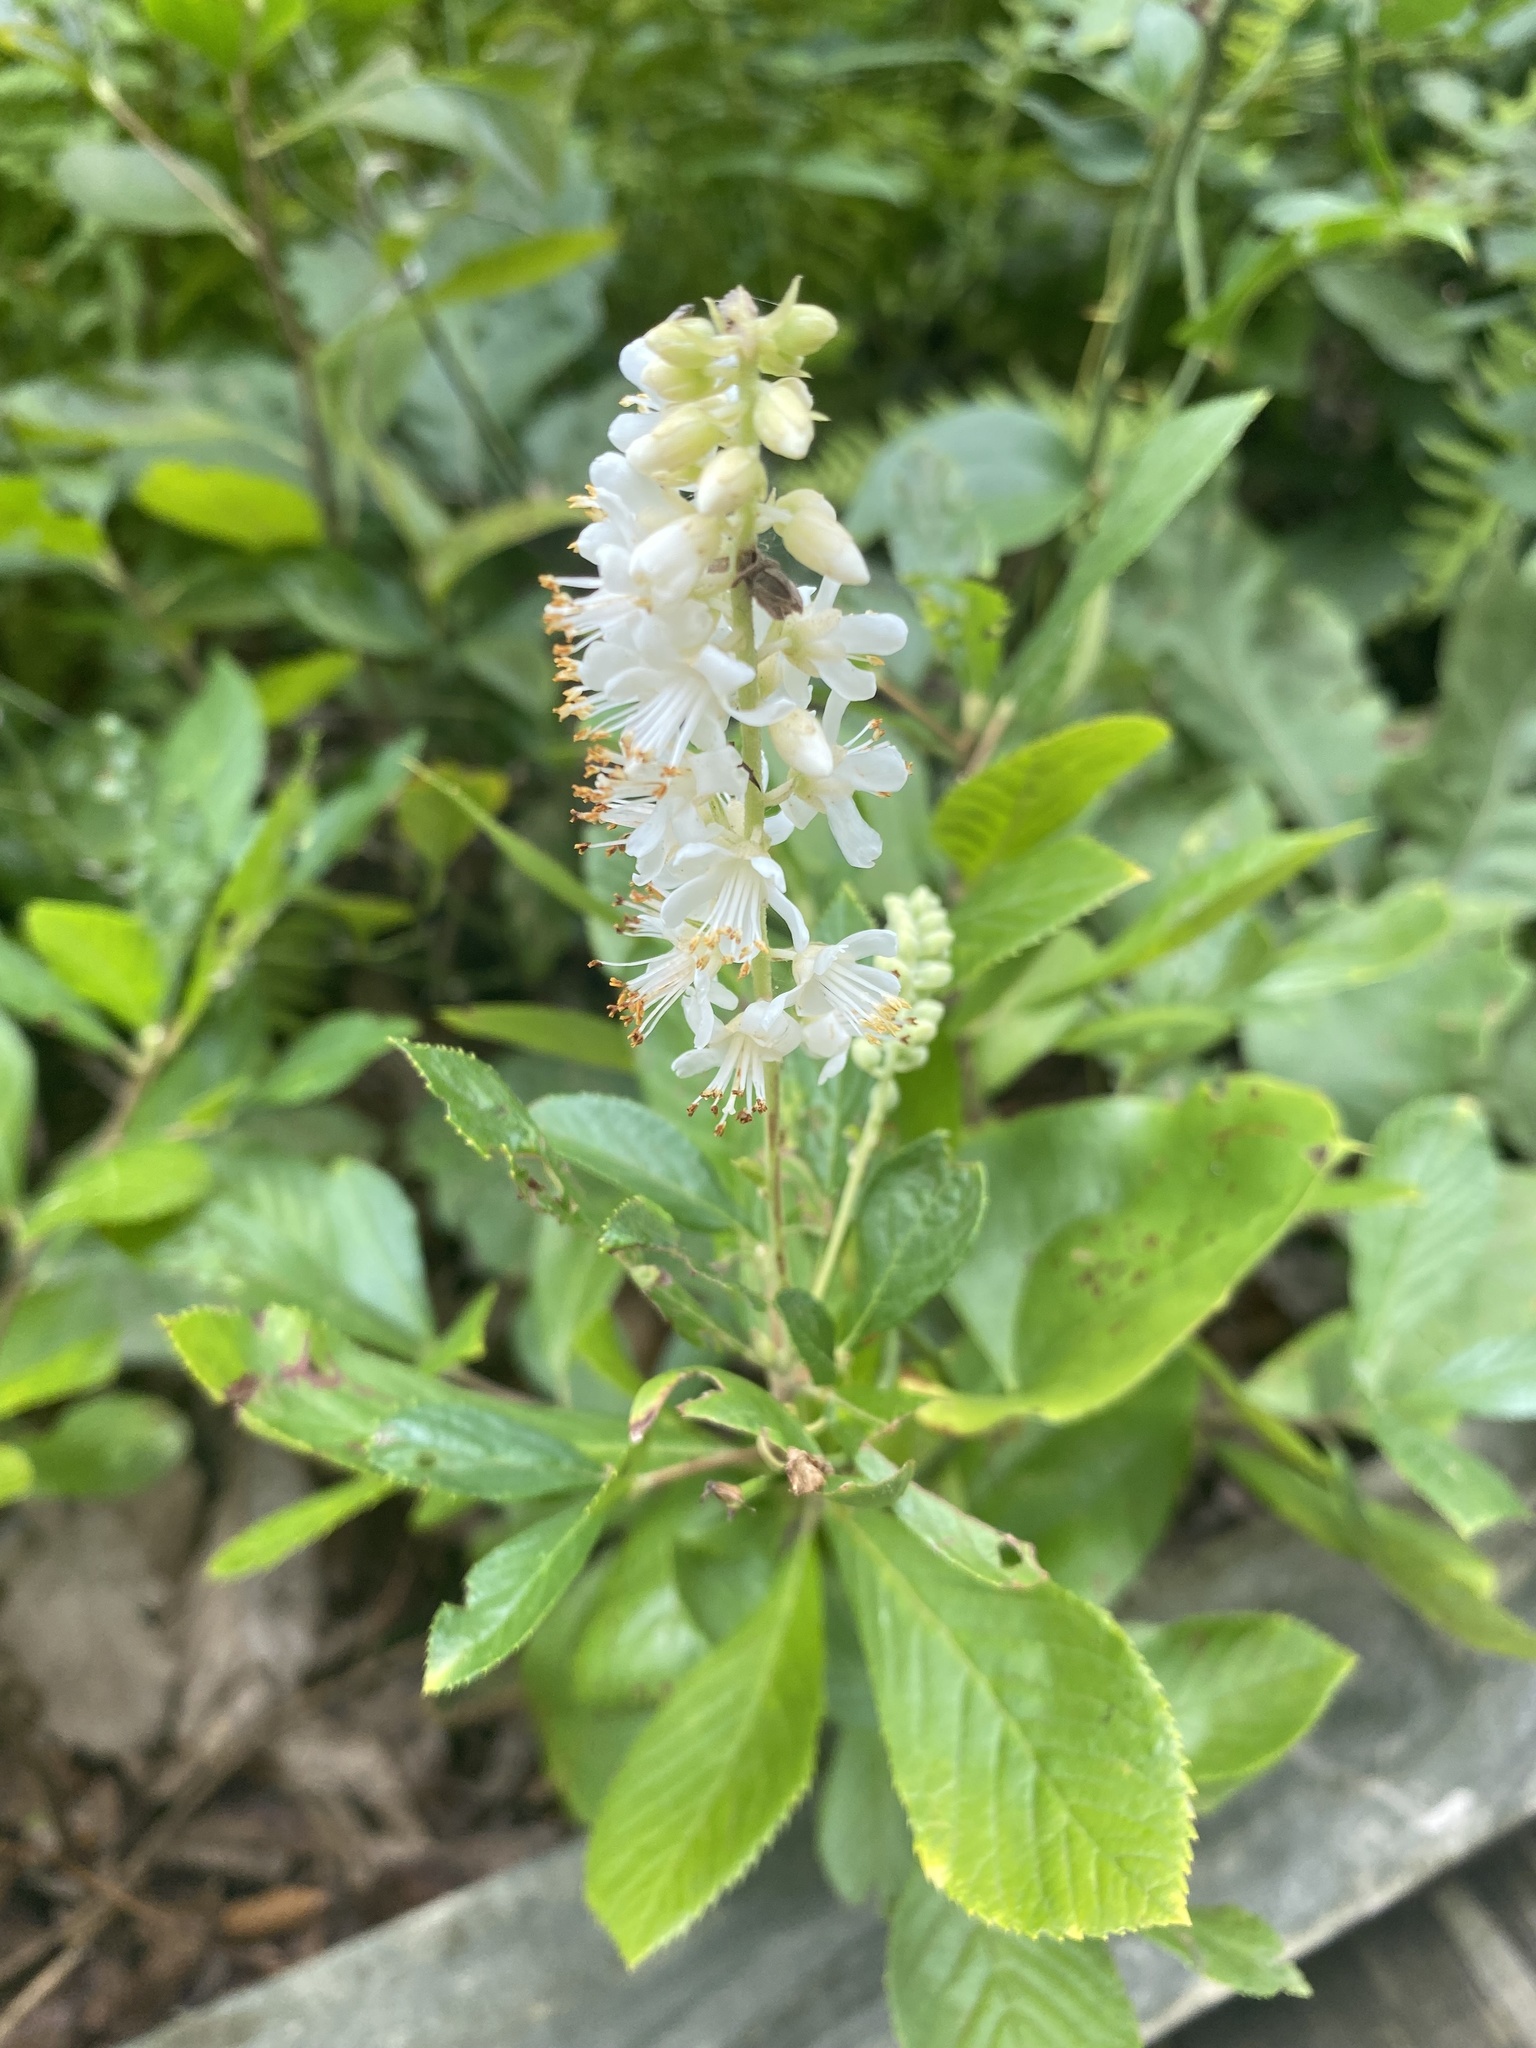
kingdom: Plantae
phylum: Tracheophyta
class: Magnoliopsida
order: Ericales
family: Clethraceae
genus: Clethra
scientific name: Clethra alnifolia
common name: Sweet pepperbush
